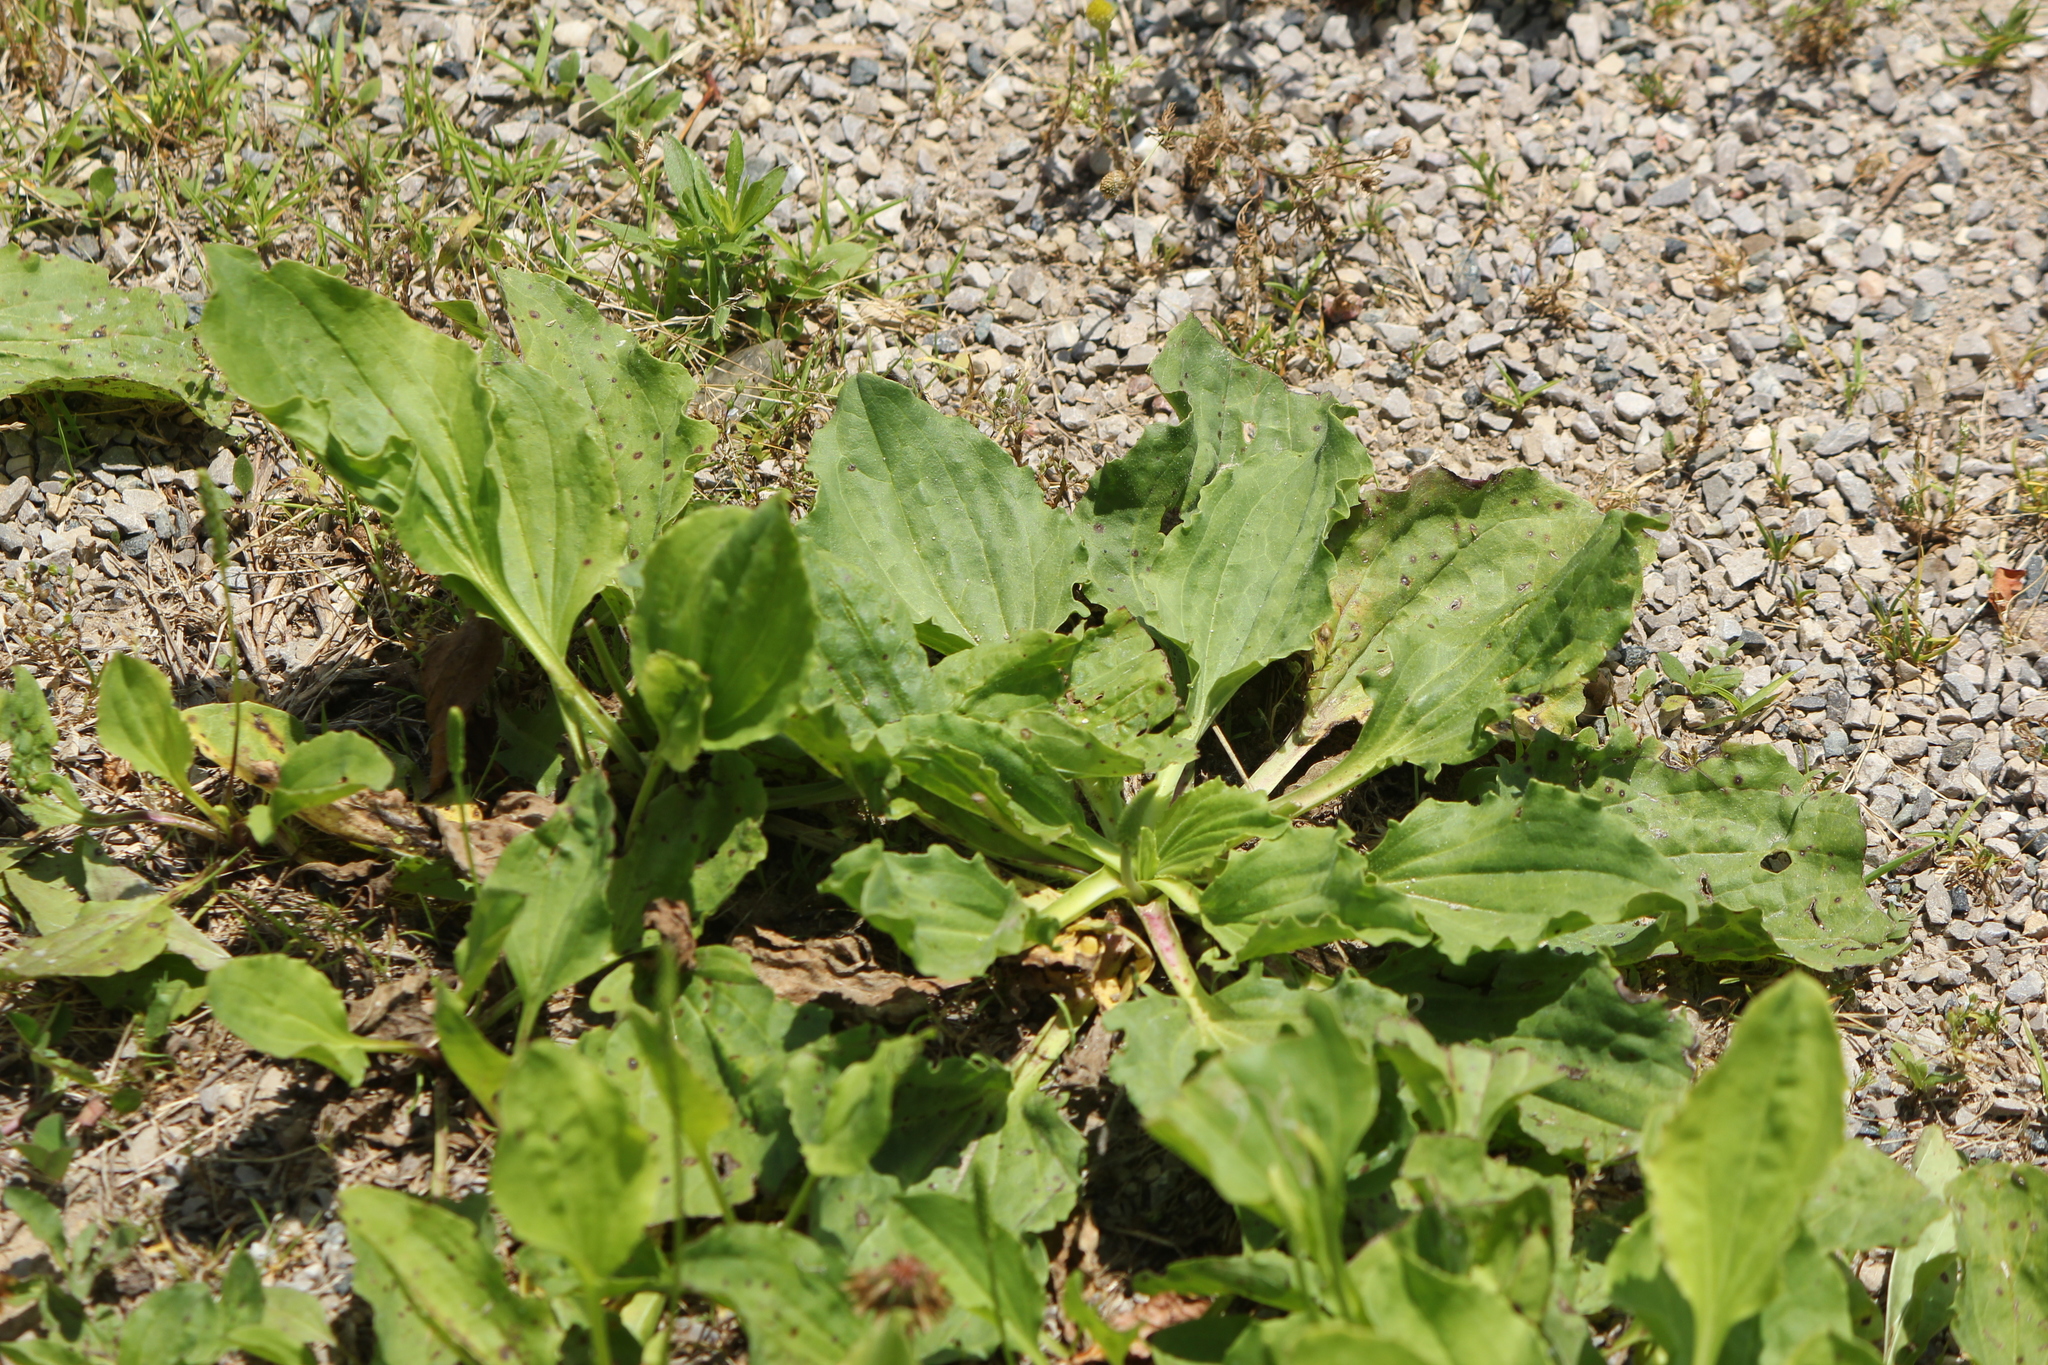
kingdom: Plantae
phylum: Tracheophyta
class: Magnoliopsida
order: Lamiales
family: Plantaginaceae
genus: Plantago
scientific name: Plantago major
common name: Common plantain
